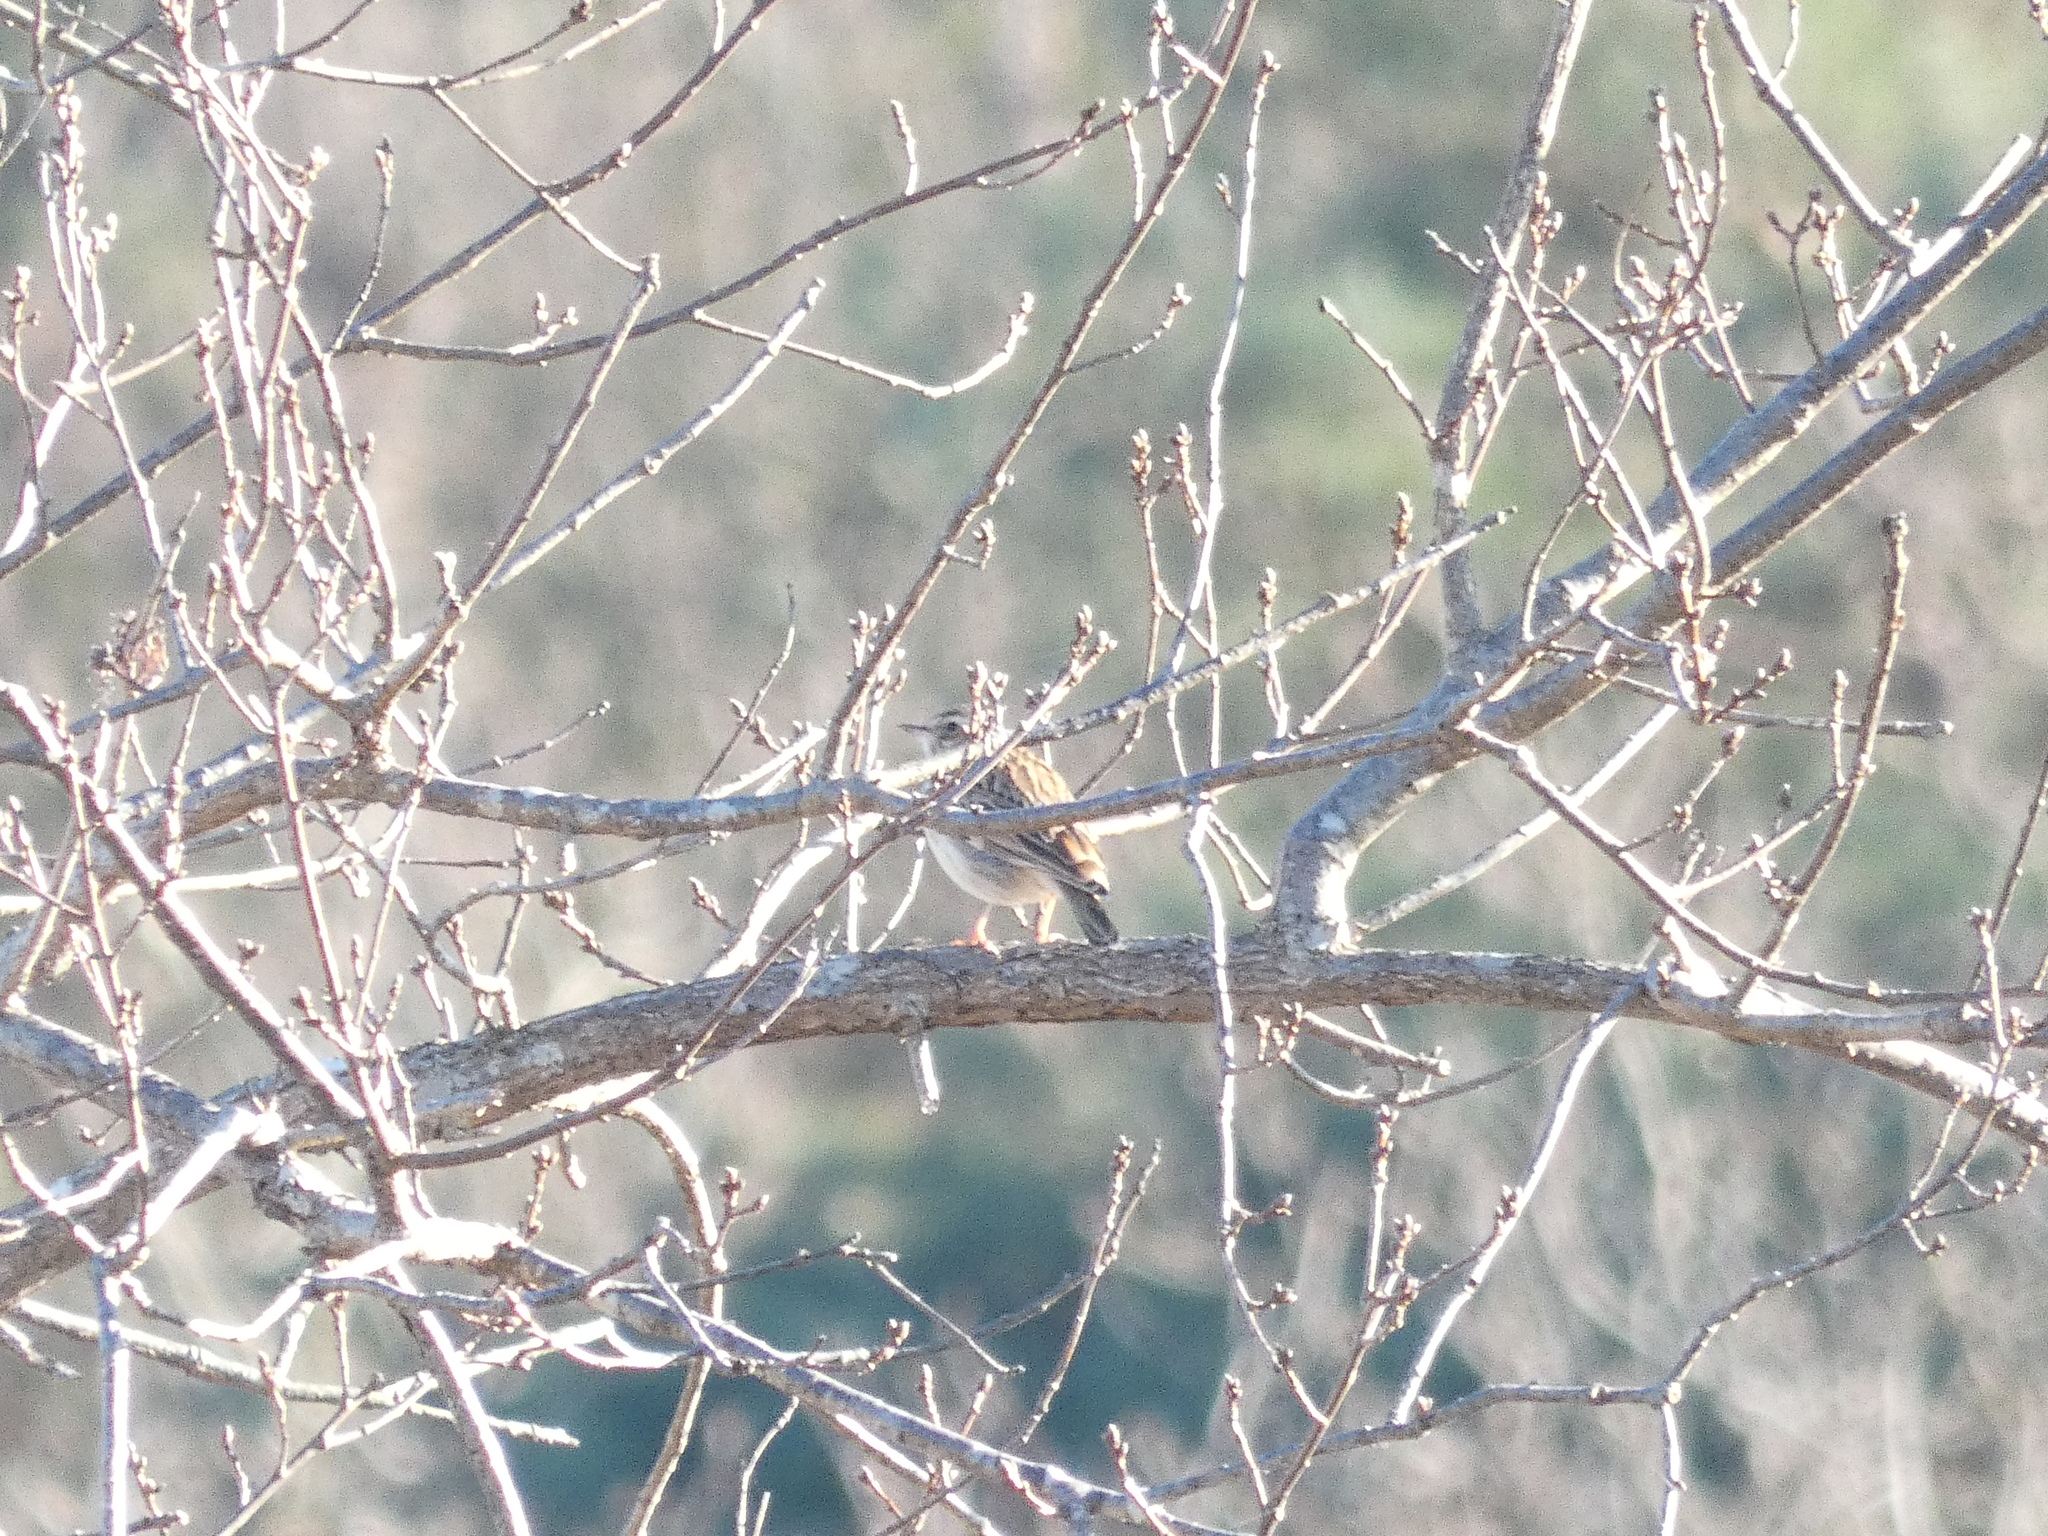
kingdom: Animalia
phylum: Chordata
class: Aves
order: Passeriformes
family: Alaudidae
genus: Lullula
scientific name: Lullula arborea
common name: Woodlark
